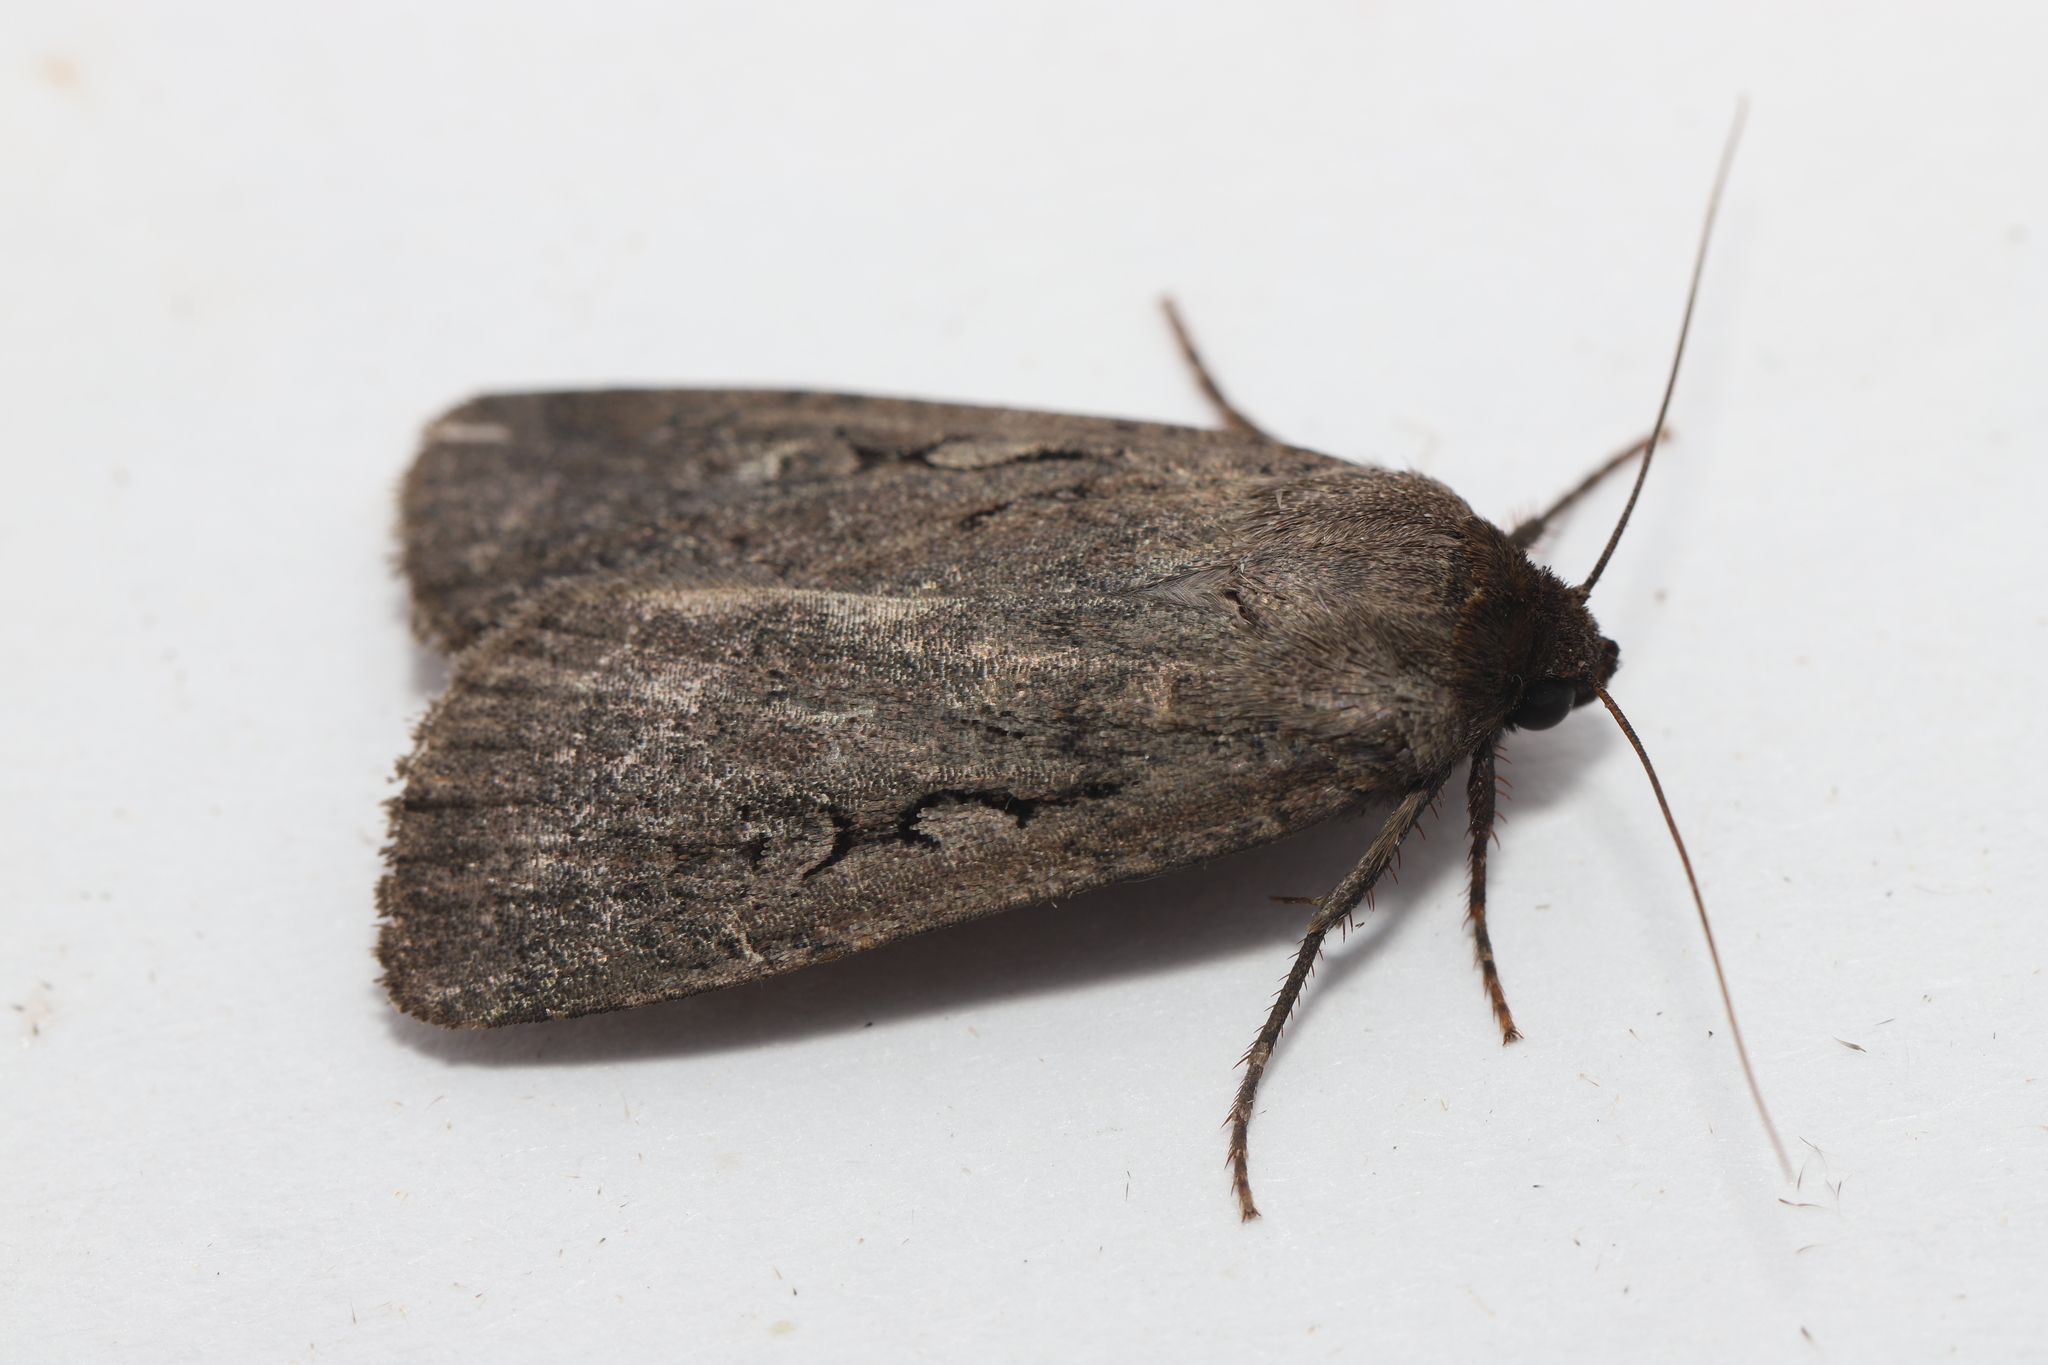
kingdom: Animalia
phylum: Arthropoda
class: Insecta
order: Lepidoptera
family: Noctuidae
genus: Spaelotis
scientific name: Spaelotis clandestina
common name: Clandestine dart
